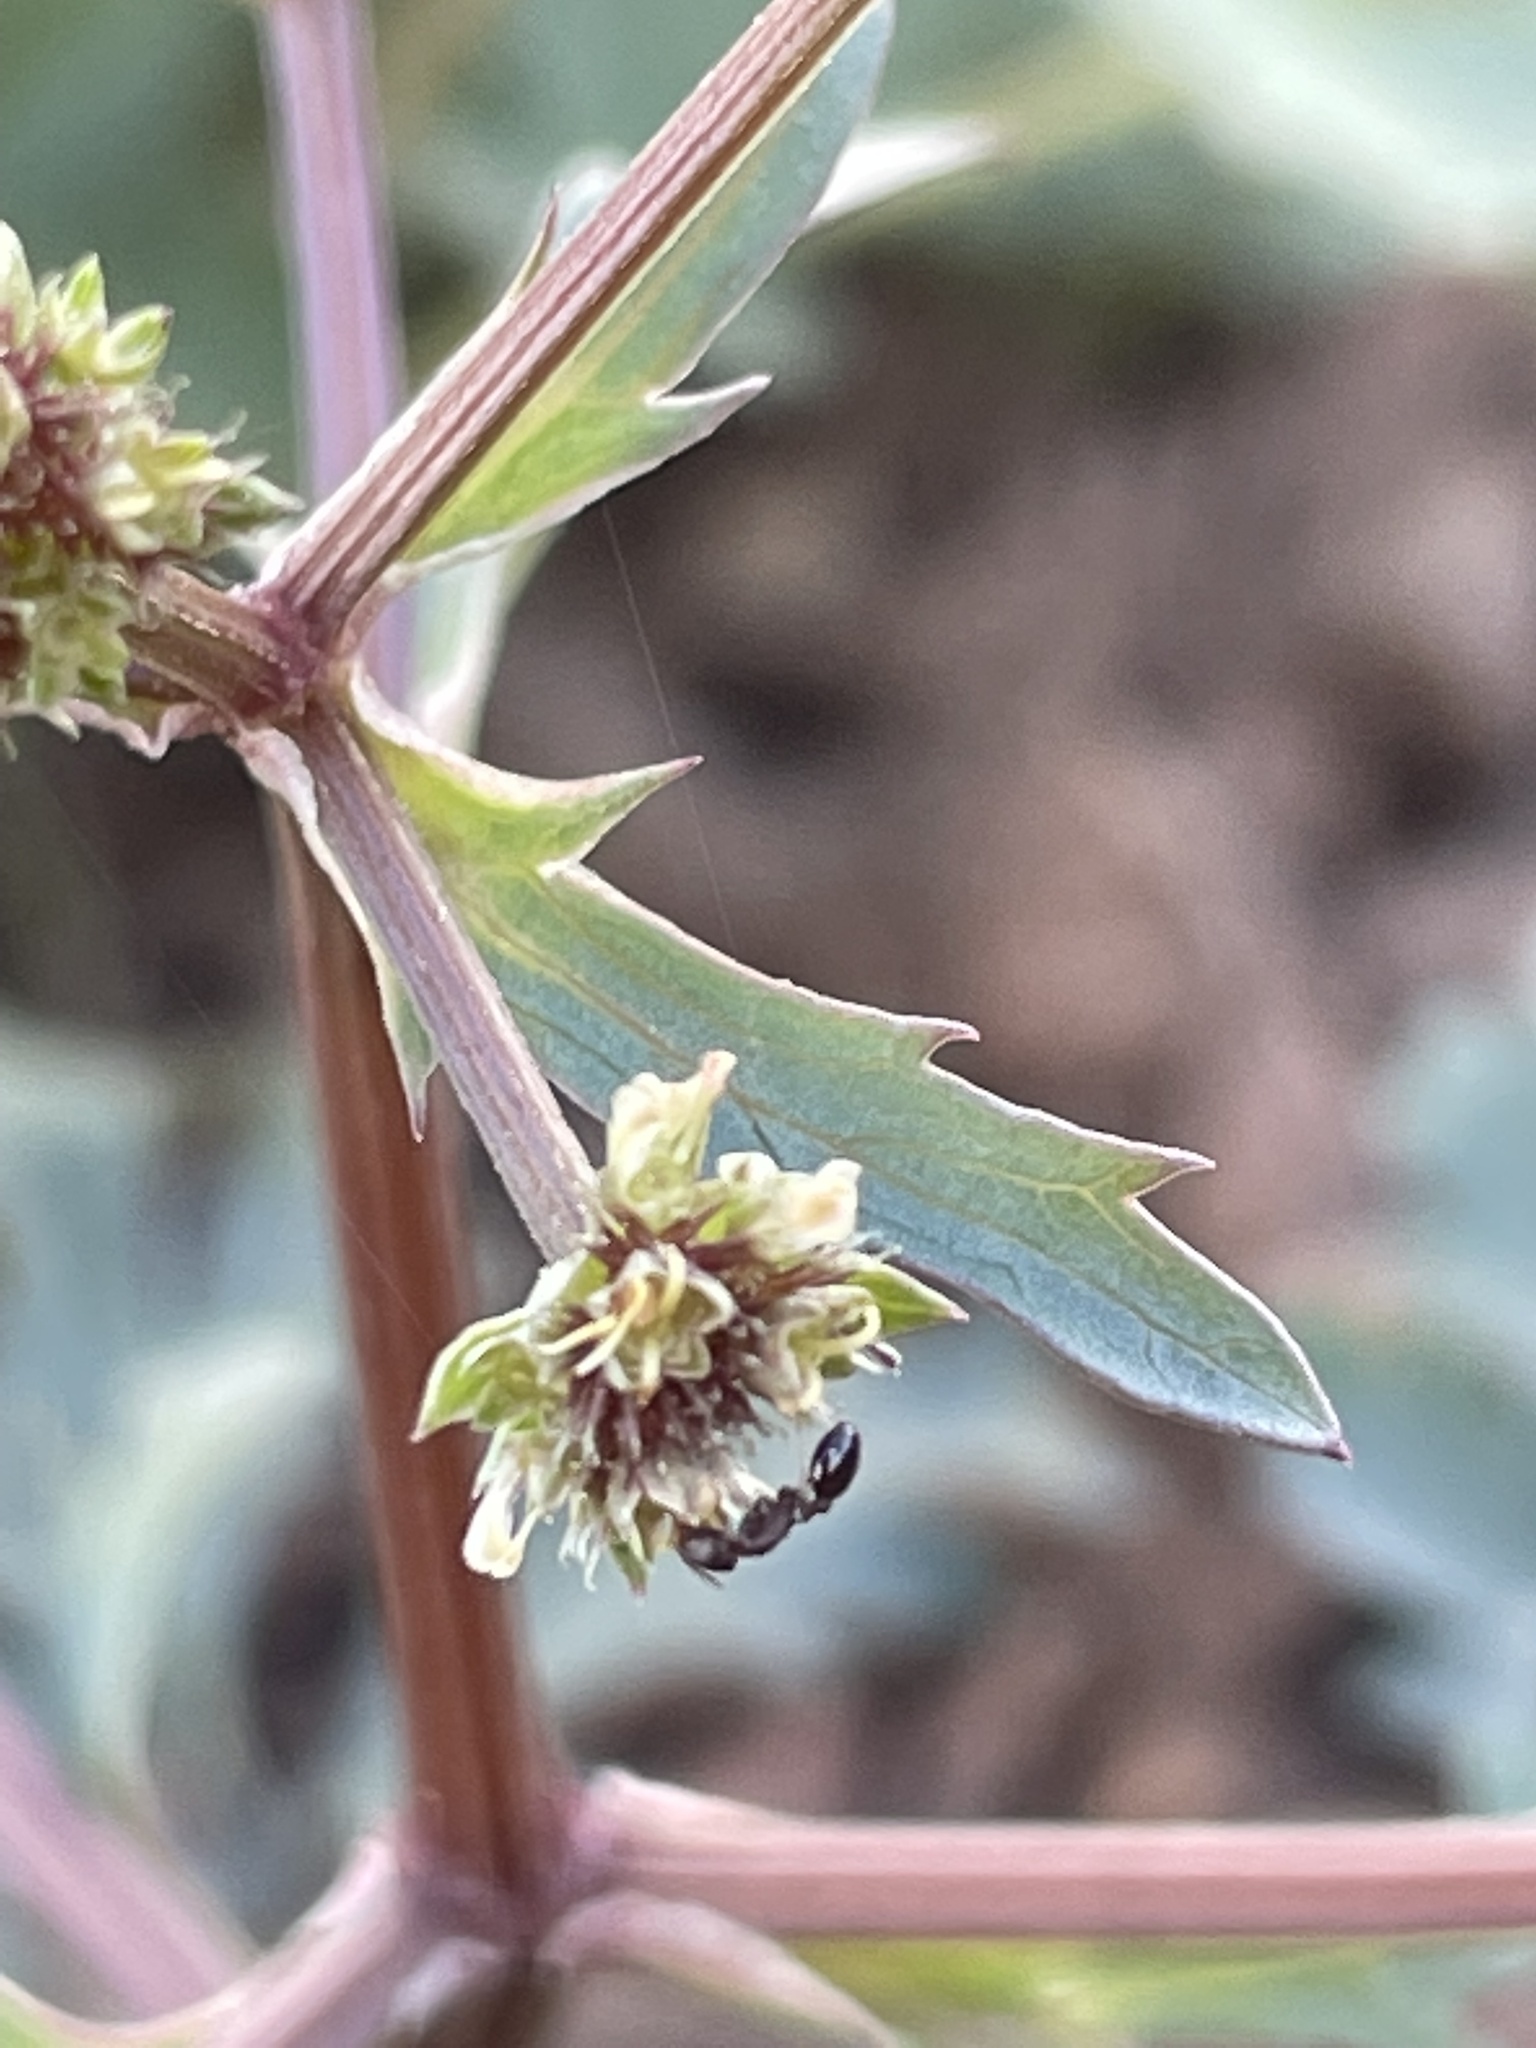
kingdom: Plantae
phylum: Tracheophyta
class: Magnoliopsida
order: Apiales
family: Apiaceae
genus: Sanicula
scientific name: Sanicula graveolens
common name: Sierra sanicle
